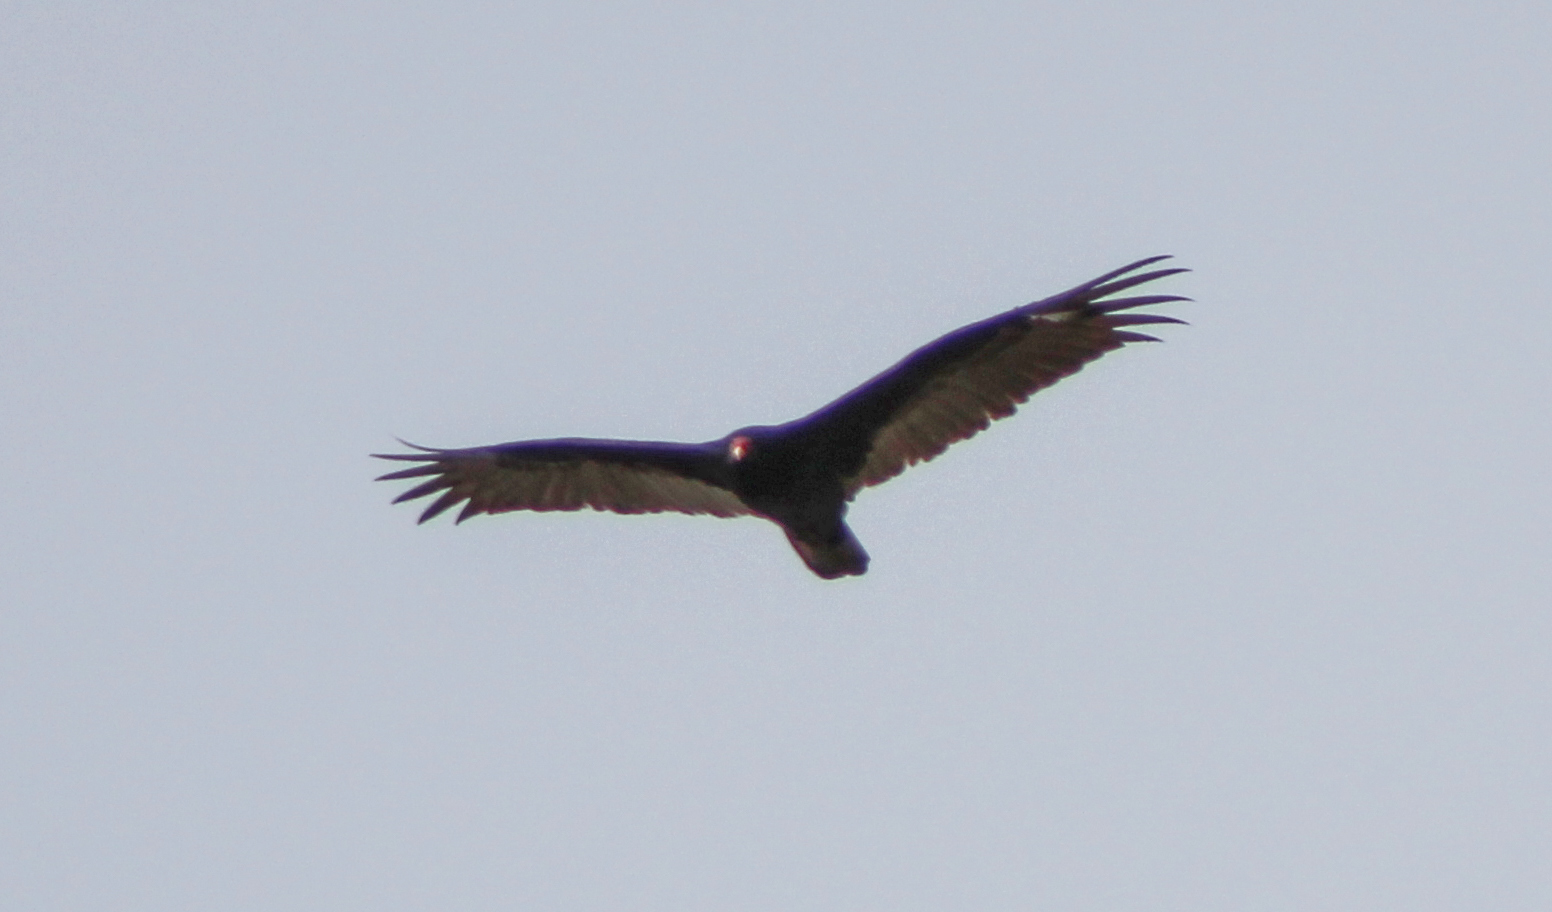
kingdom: Animalia
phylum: Chordata
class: Aves
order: Accipitriformes
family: Cathartidae
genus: Cathartes
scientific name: Cathartes aura
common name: Turkey vulture
